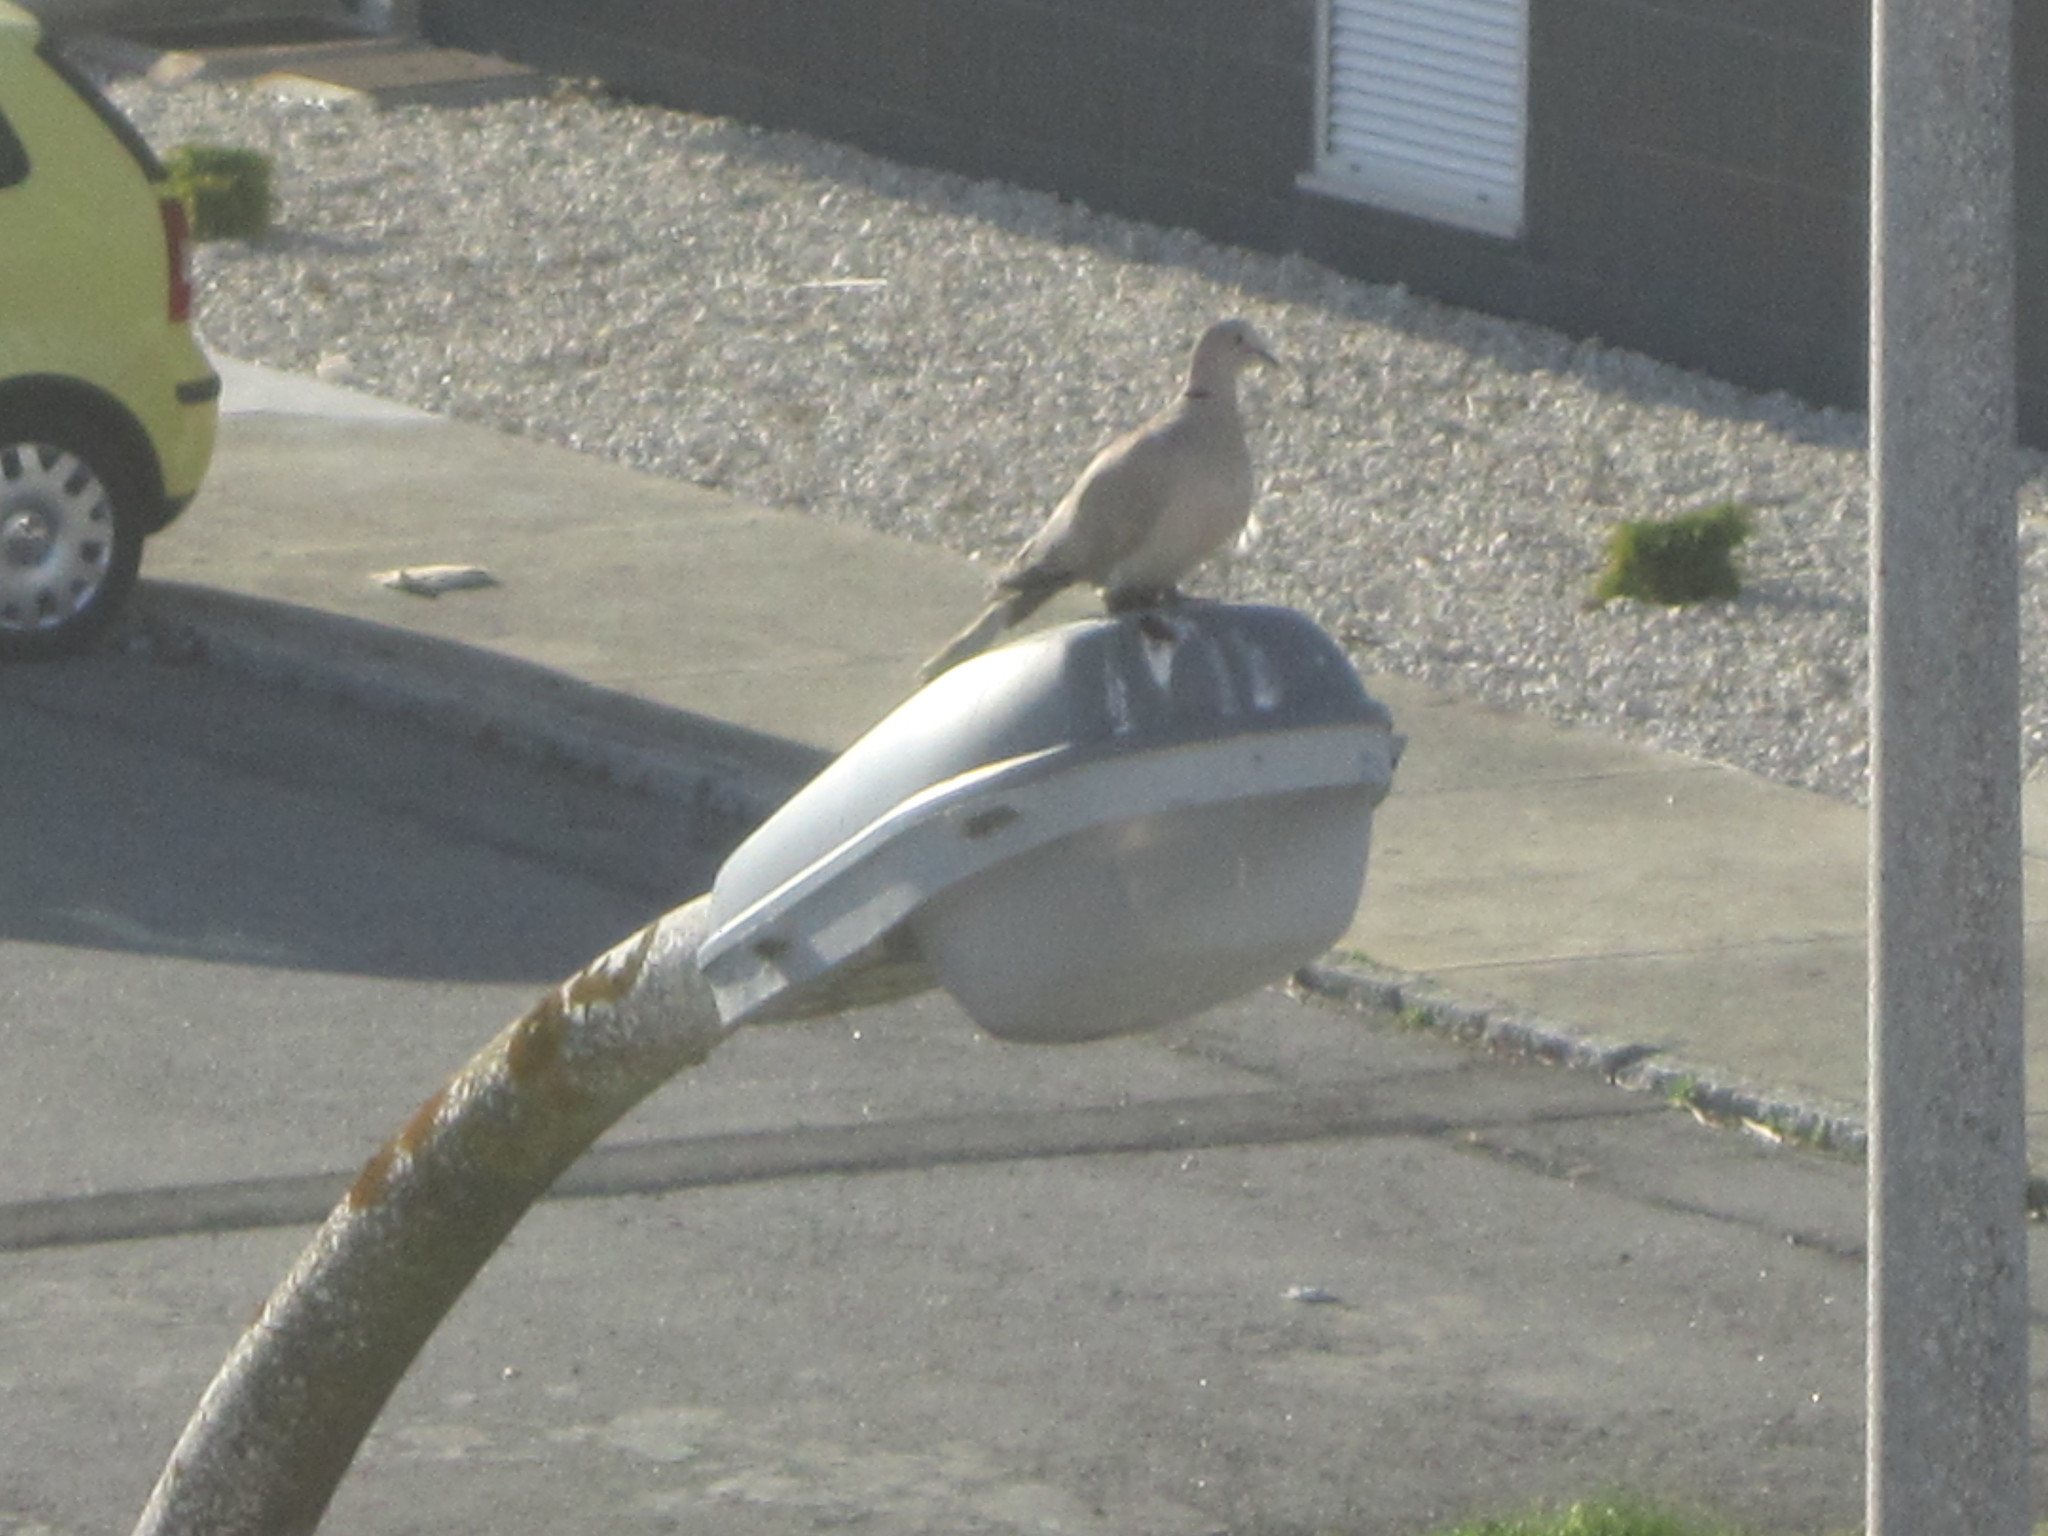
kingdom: Animalia
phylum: Chordata
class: Aves
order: Columbiformes
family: Columbidae
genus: Streptopelia
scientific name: Streptopelia decaocto
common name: Eurasian collared dove
